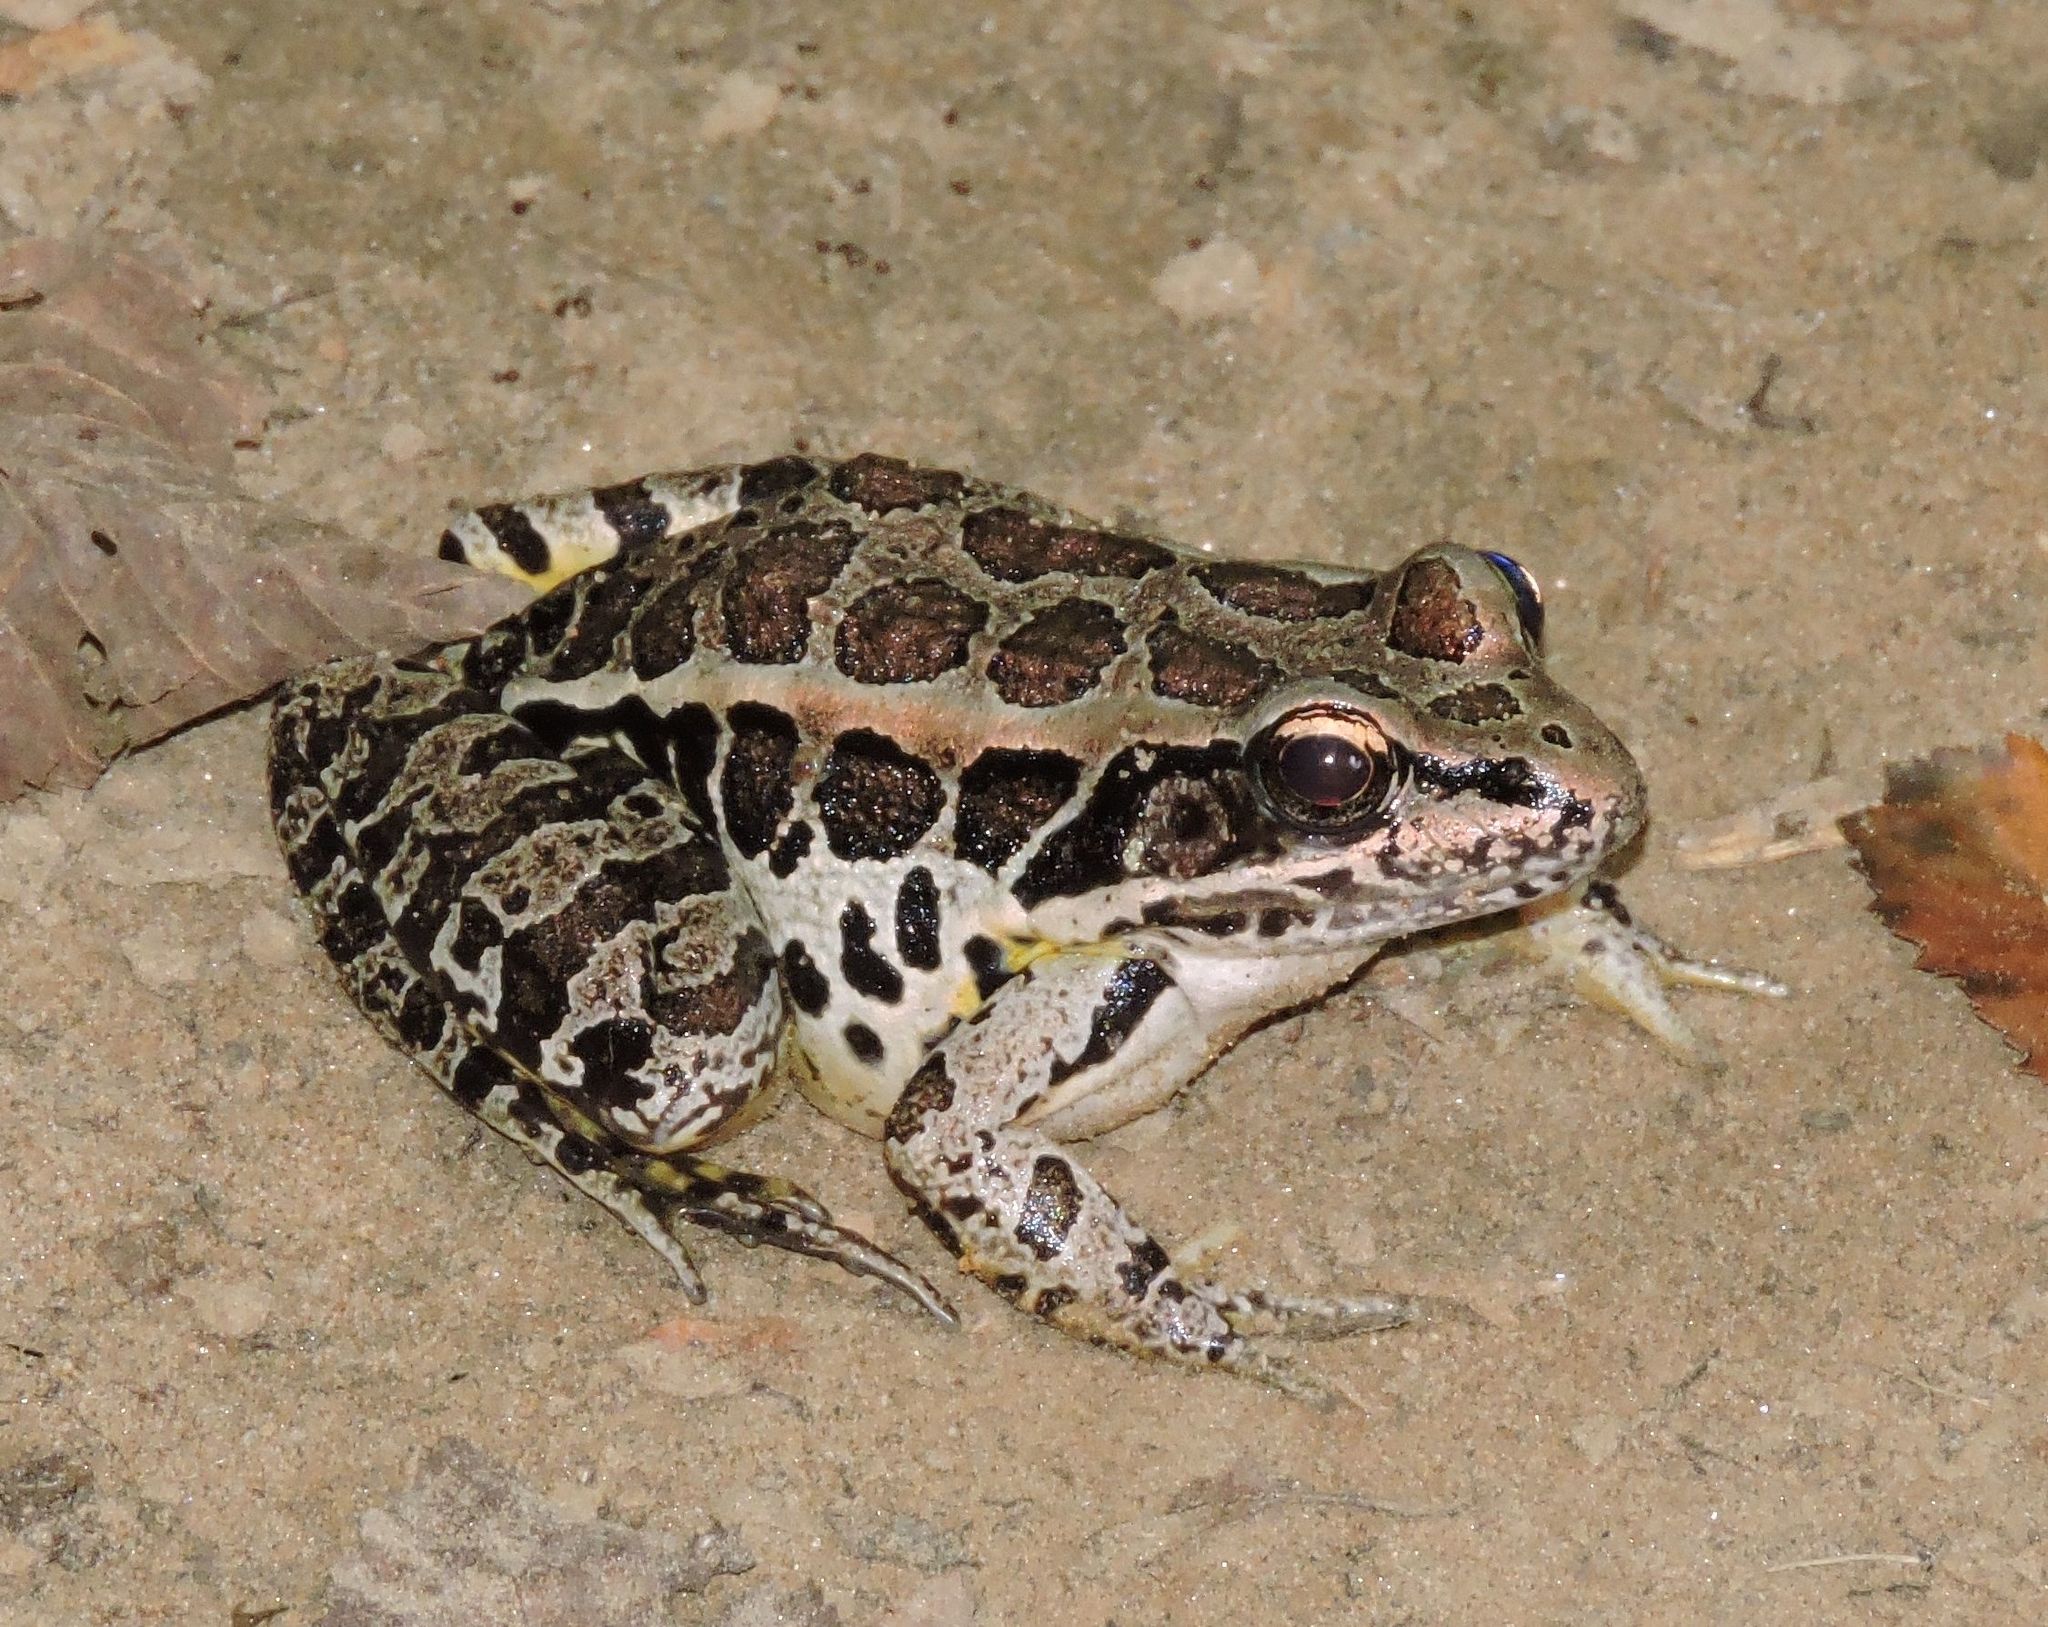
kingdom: Animalia
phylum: Chordata
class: Amphibia
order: Anura
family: Ranidae
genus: Lithobates
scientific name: Lithobates palustris
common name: Pickerel frog
